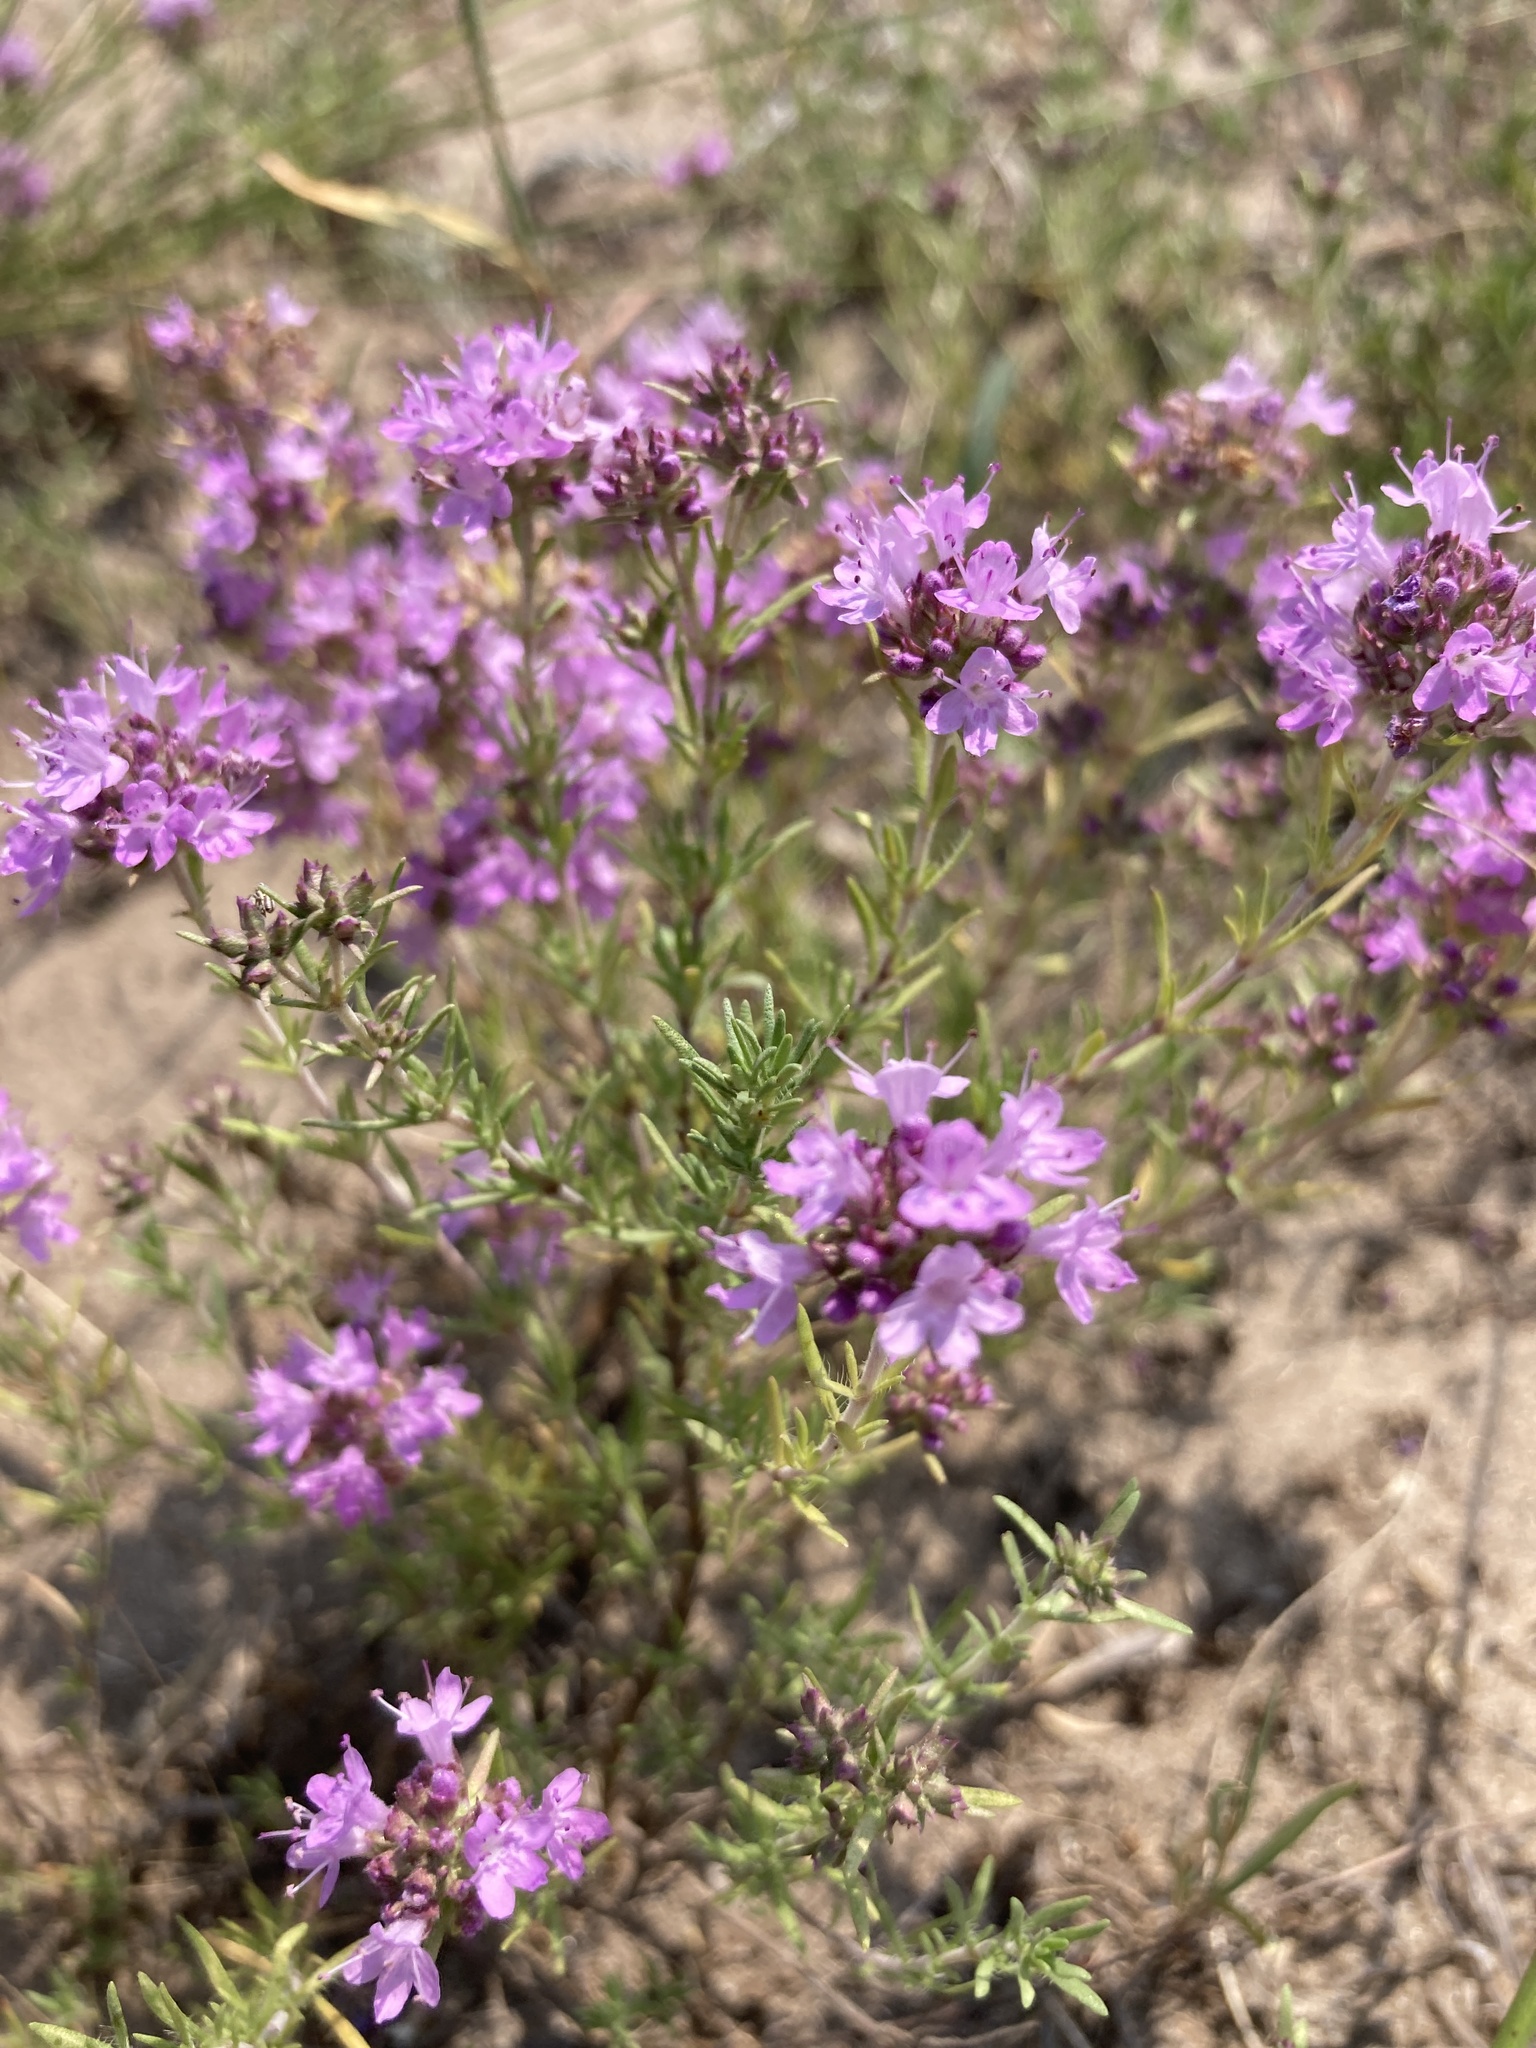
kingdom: Plantae
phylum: Tracheophyta
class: Magnoliopsida
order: Lamiales
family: Lamiaceae
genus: Thymus
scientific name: Thymus pallasianus
